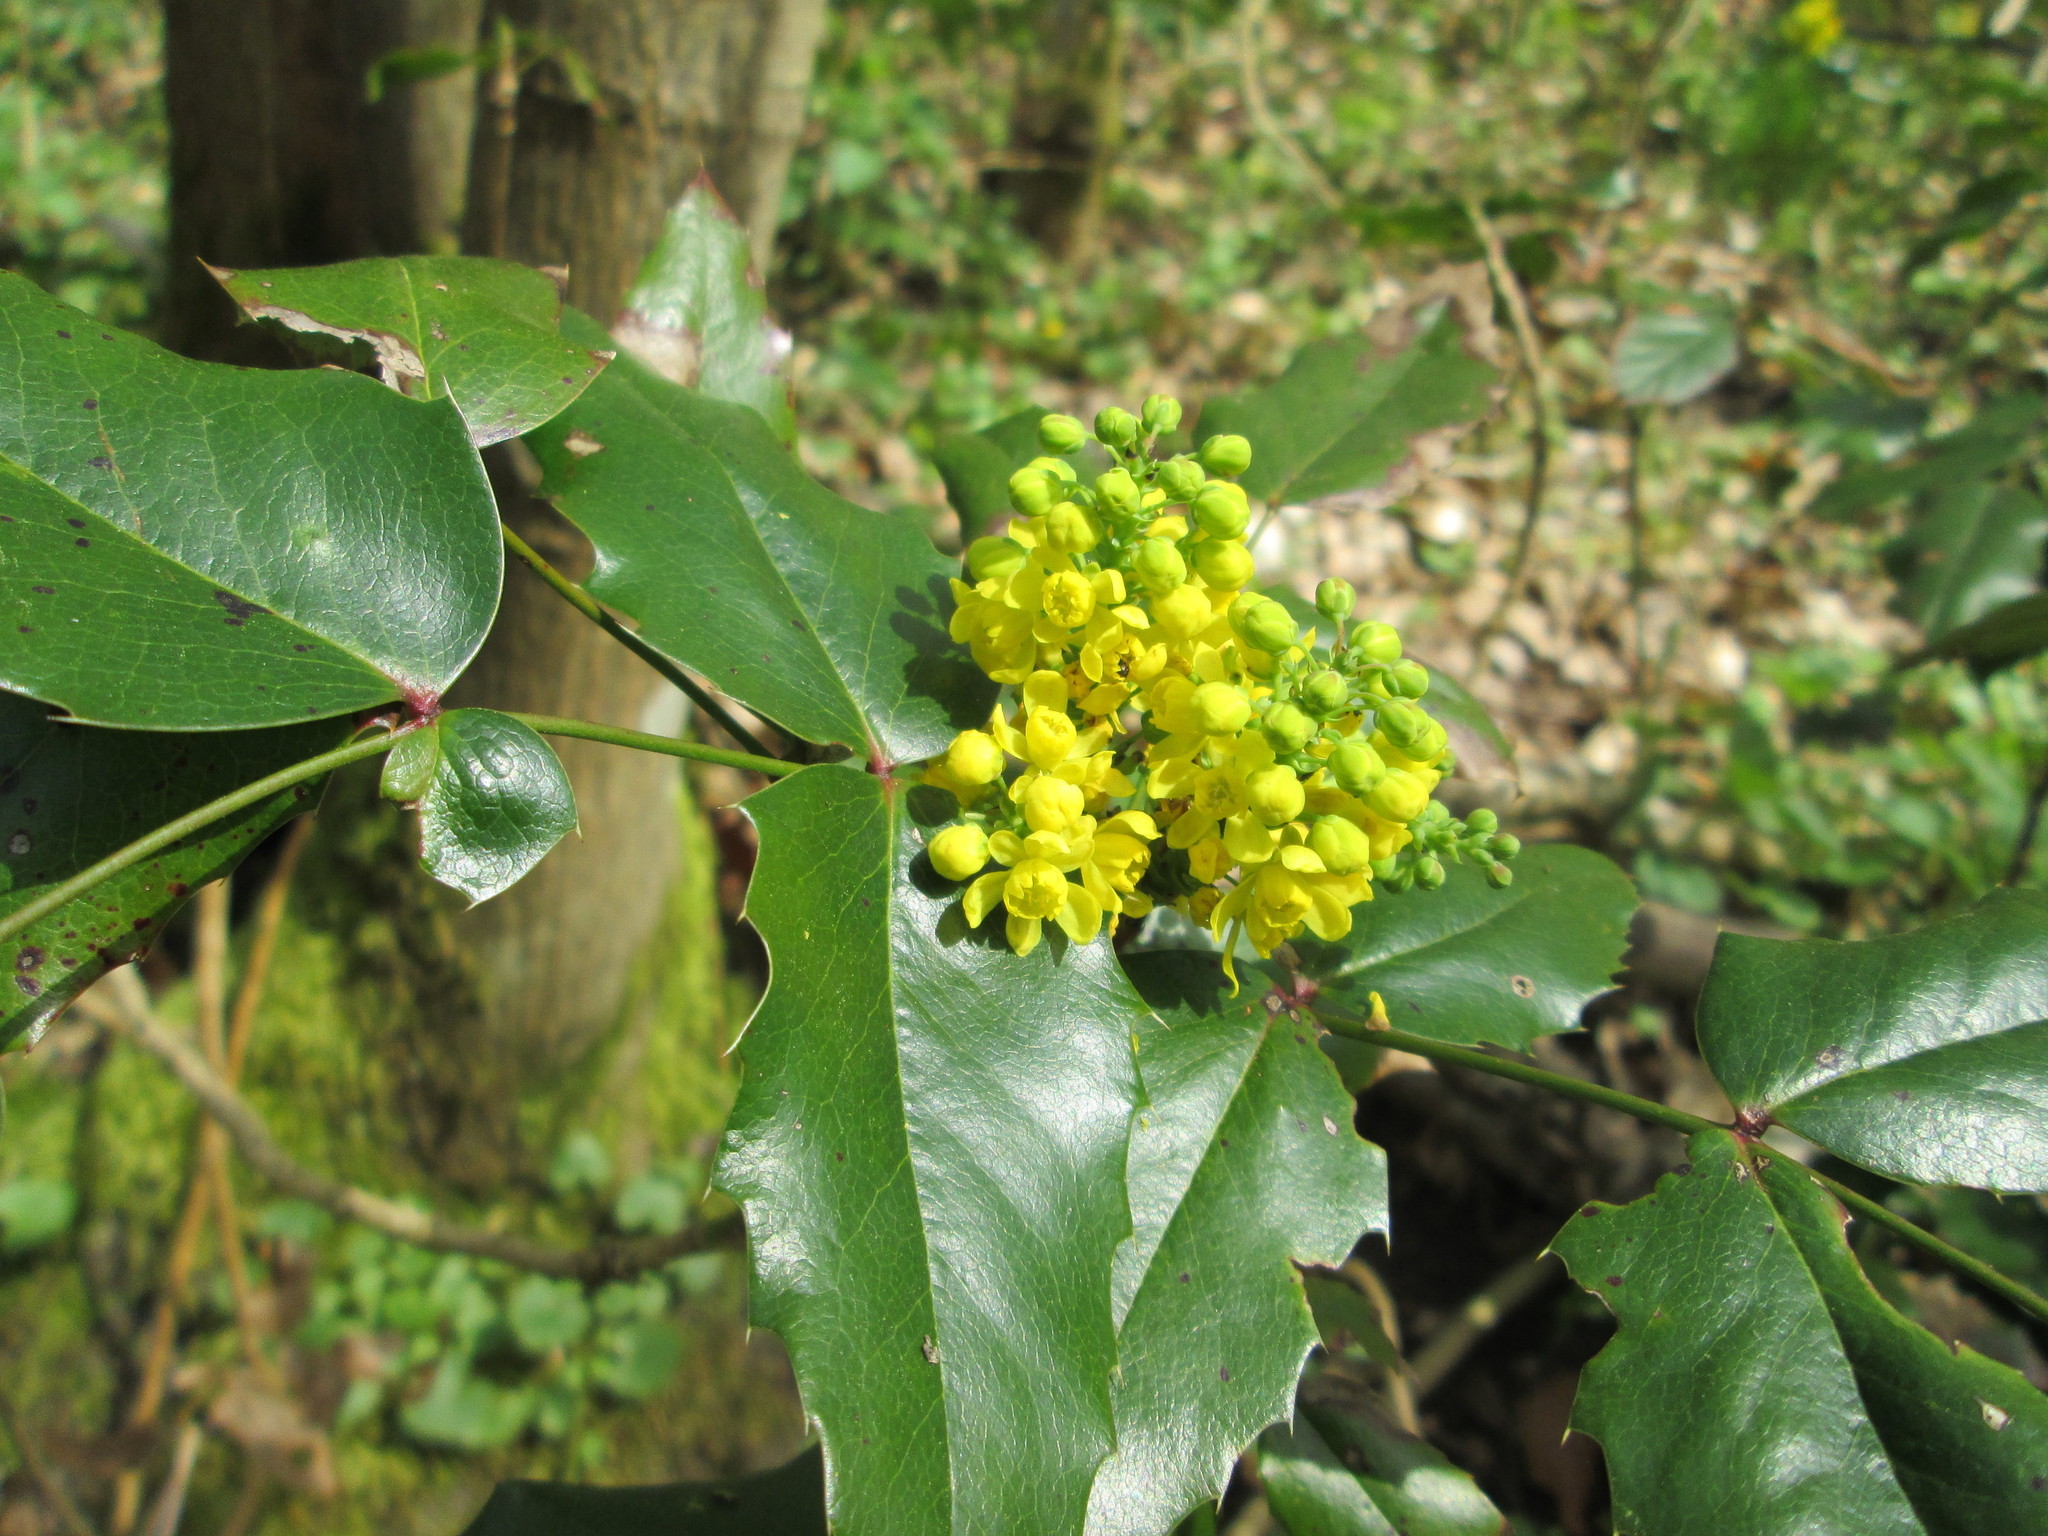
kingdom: Plantae
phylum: Tracheophyta
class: Magnoliopsida
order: Ranunculales
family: Berberidaceae
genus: Mahonia
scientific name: Mahonia aquifolium
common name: Oregon-grape
